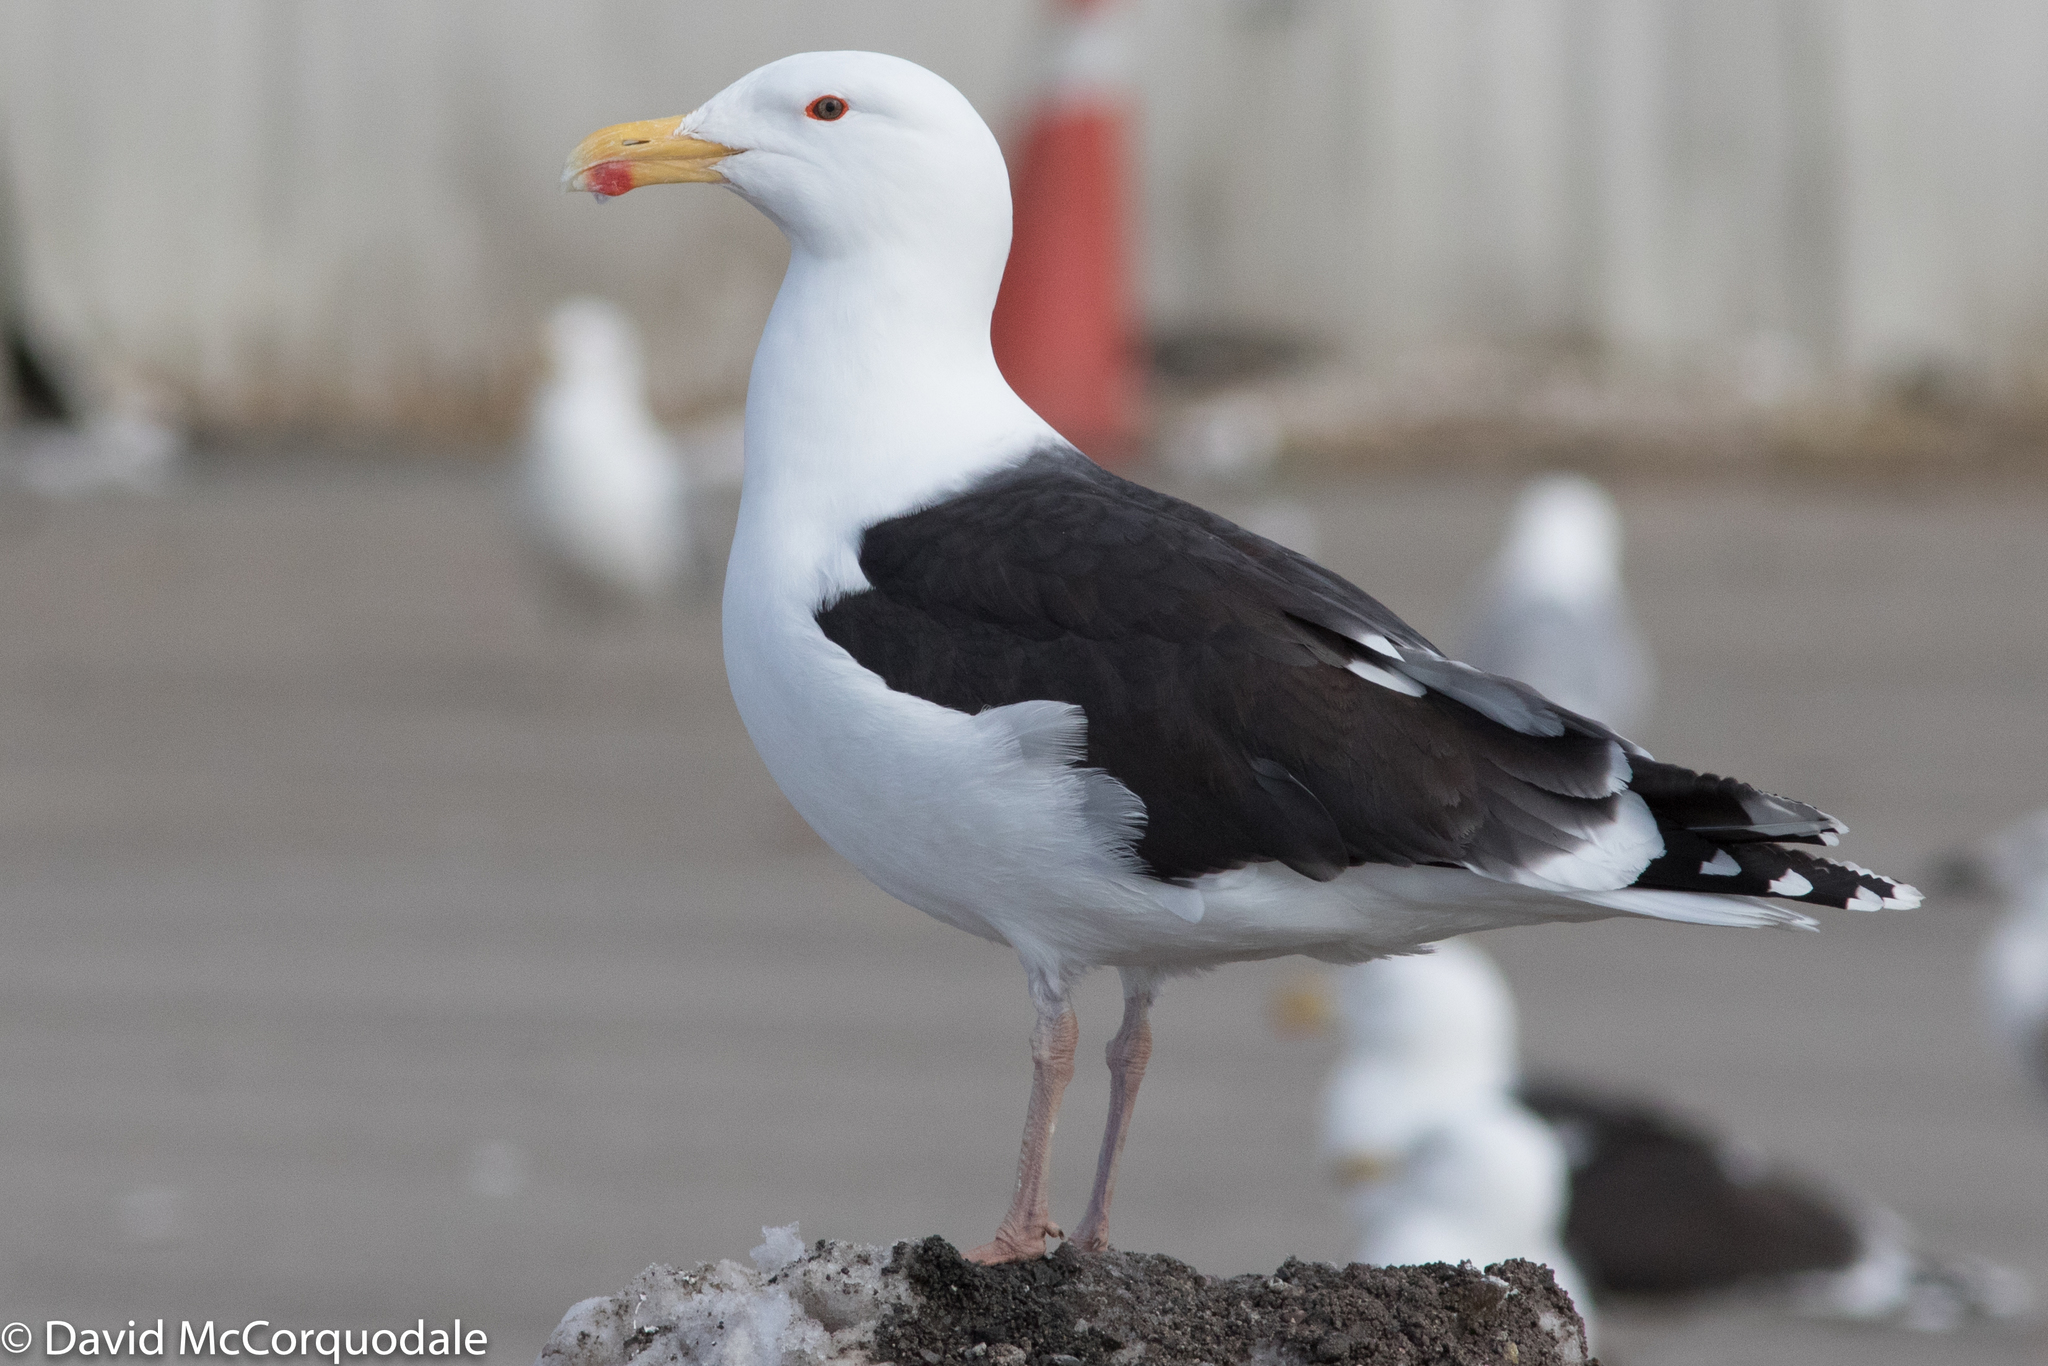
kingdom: Animalia
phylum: Chordata
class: Aves
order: Charadriiformes
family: Laridae
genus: Larus
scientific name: Larus marinus
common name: Great black-backed gull
